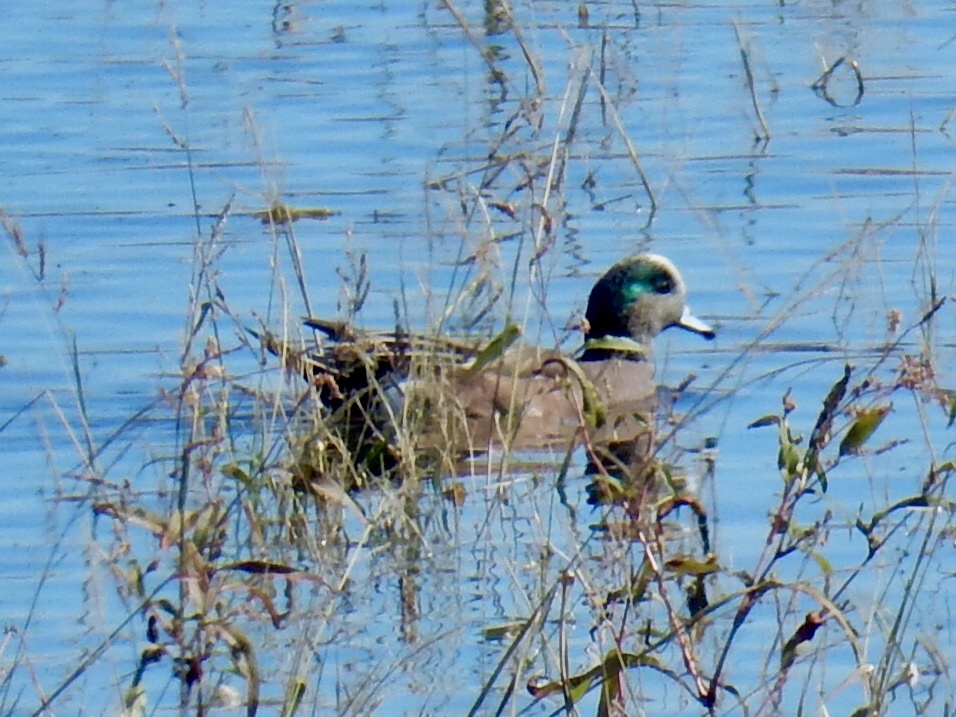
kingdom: Animalia
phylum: Chordata
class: Aves
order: Anseriformes
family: Anatidae
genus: Mareca
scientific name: Mareca americana
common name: American wigeon
